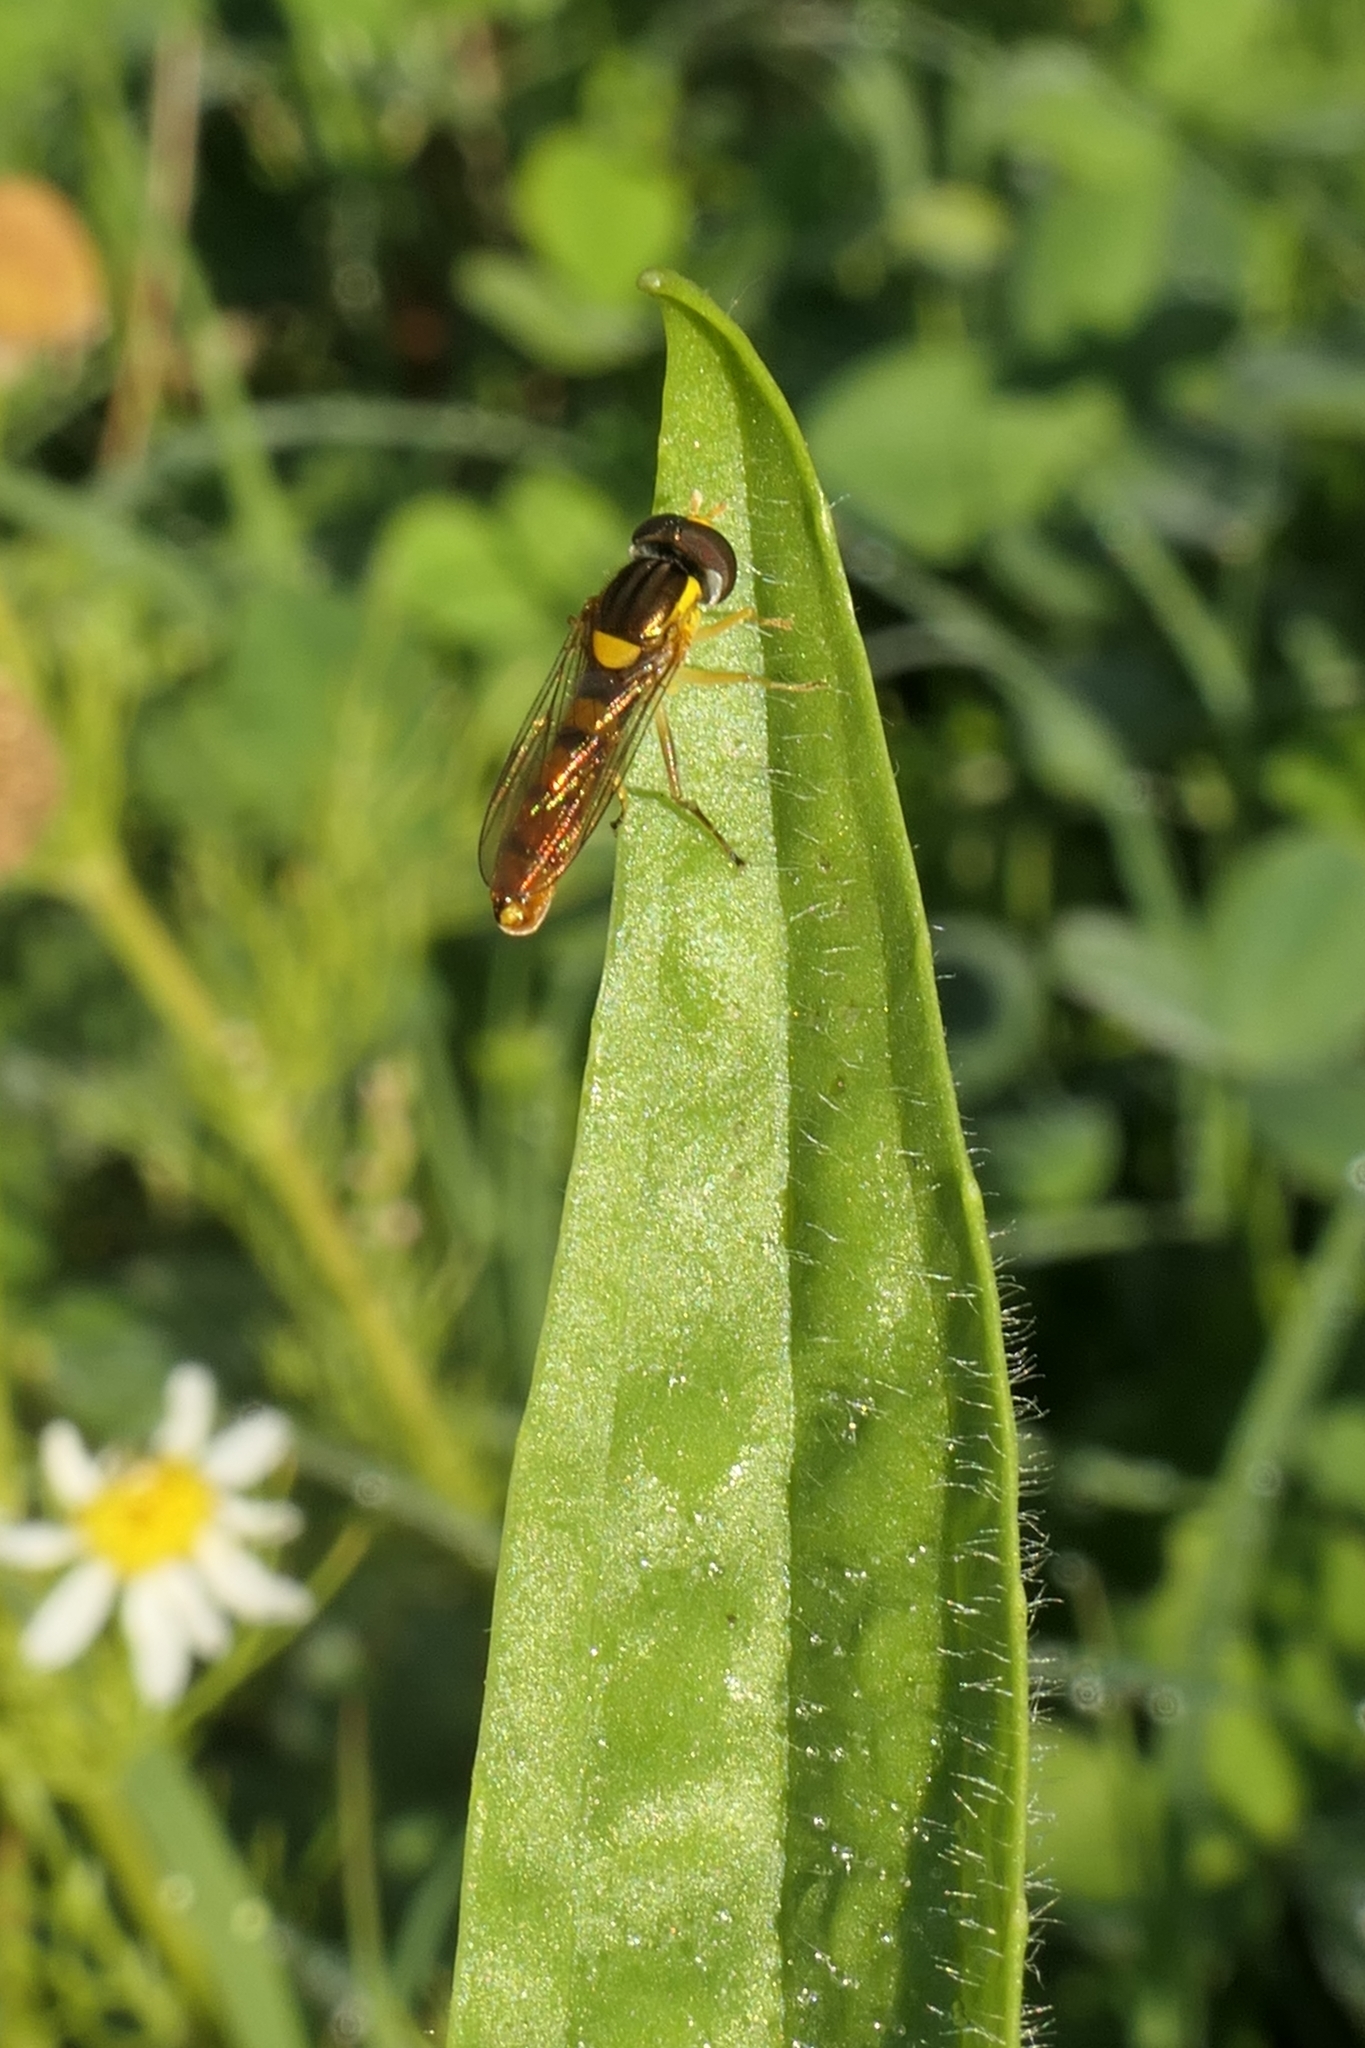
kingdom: Animalia
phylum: Arthropoda
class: Insecta
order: Diptera
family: Syrphidae
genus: Sphaerophoria
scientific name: Sphaerophoria macrogaster
